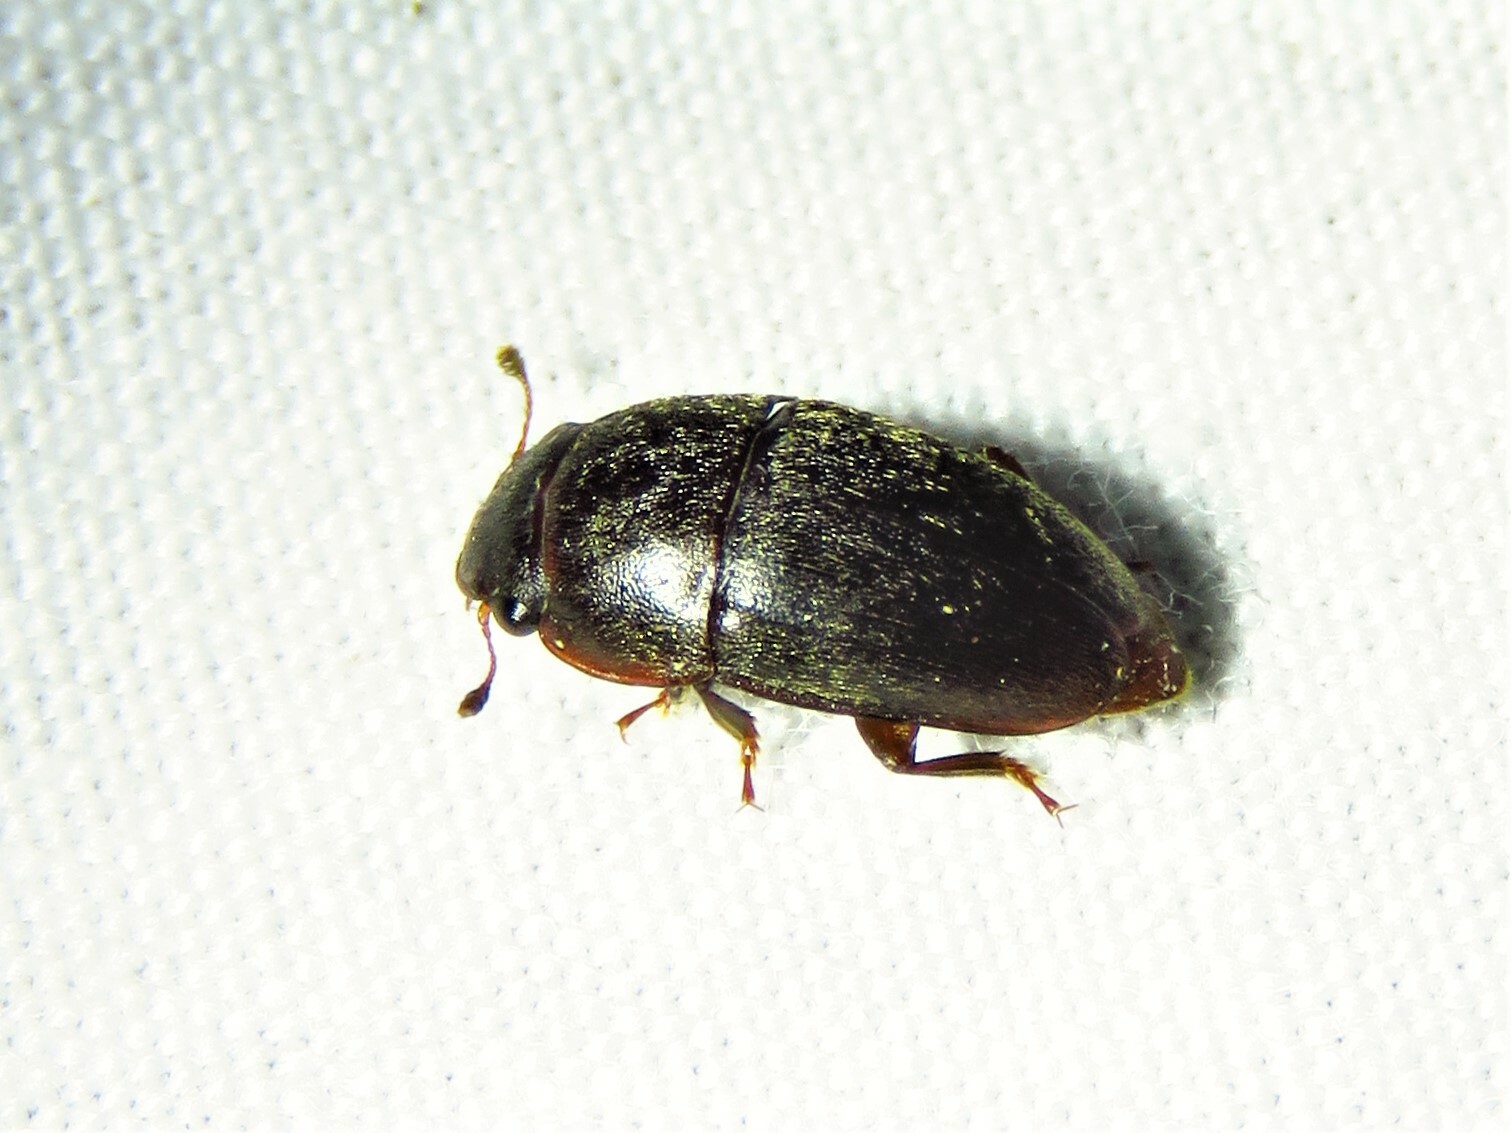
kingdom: Animalia
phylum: Arthropoda
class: Insecta
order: Coleoptera
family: Nitidulidae
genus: Cryptarcha
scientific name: Cryptarcha ampla
